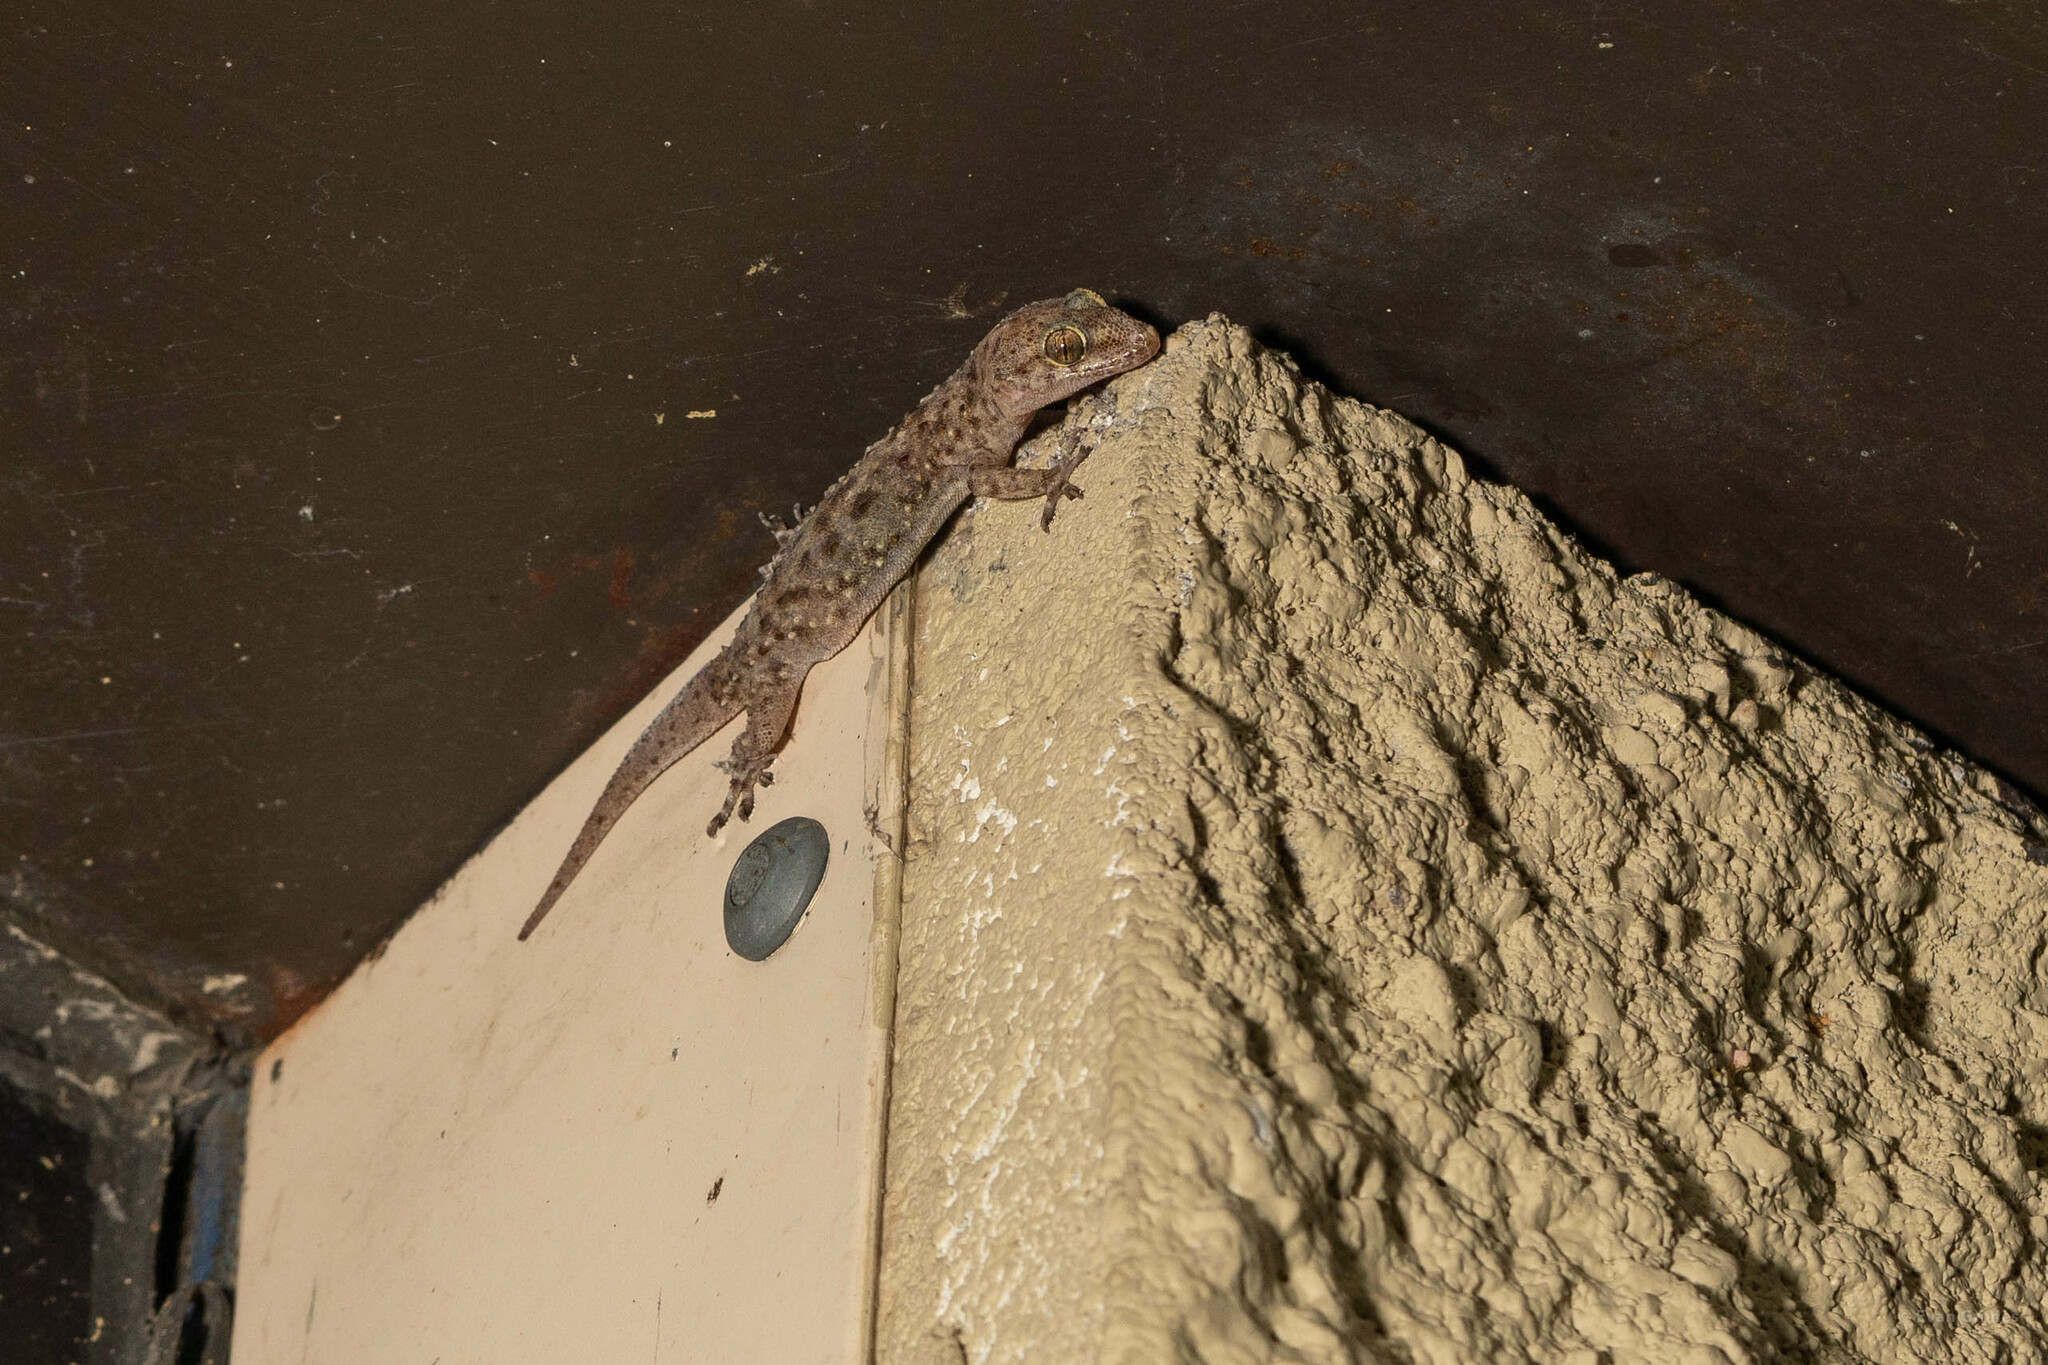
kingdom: Animalia
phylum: Chordata
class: Squamata
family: Gekkonidae
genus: Hemidactylus
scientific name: Hemidactylus turcicus
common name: Turkish gecko
